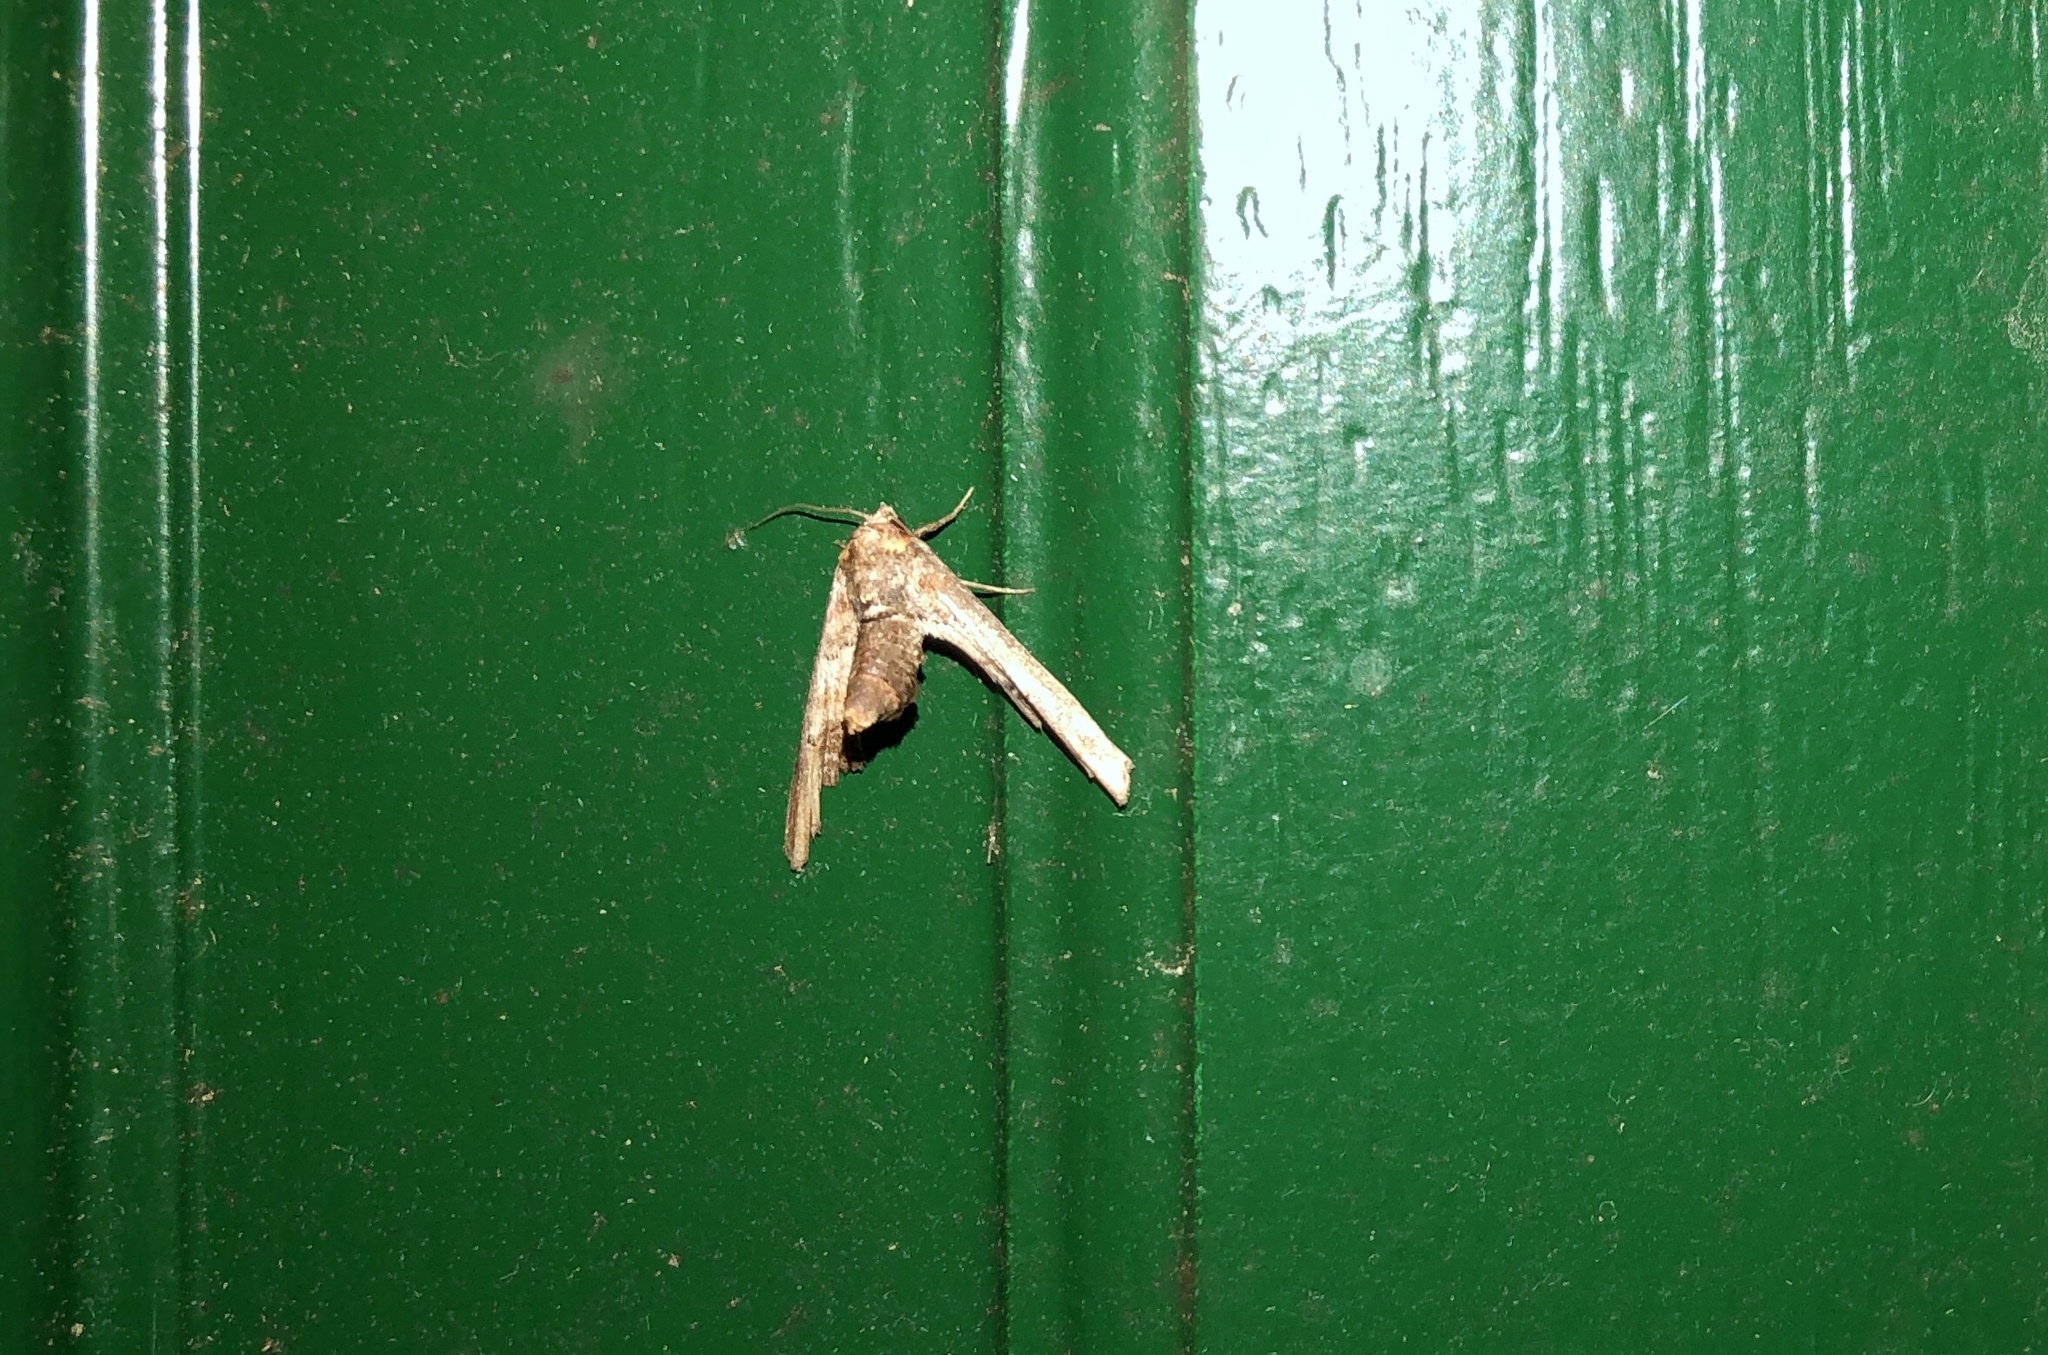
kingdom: Animalia
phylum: Arthropoda
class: Insecta
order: Lepidoptera
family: Euteliidae
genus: Marathyssa
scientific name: Marathyssa inficita
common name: Dark marathyssa moth
